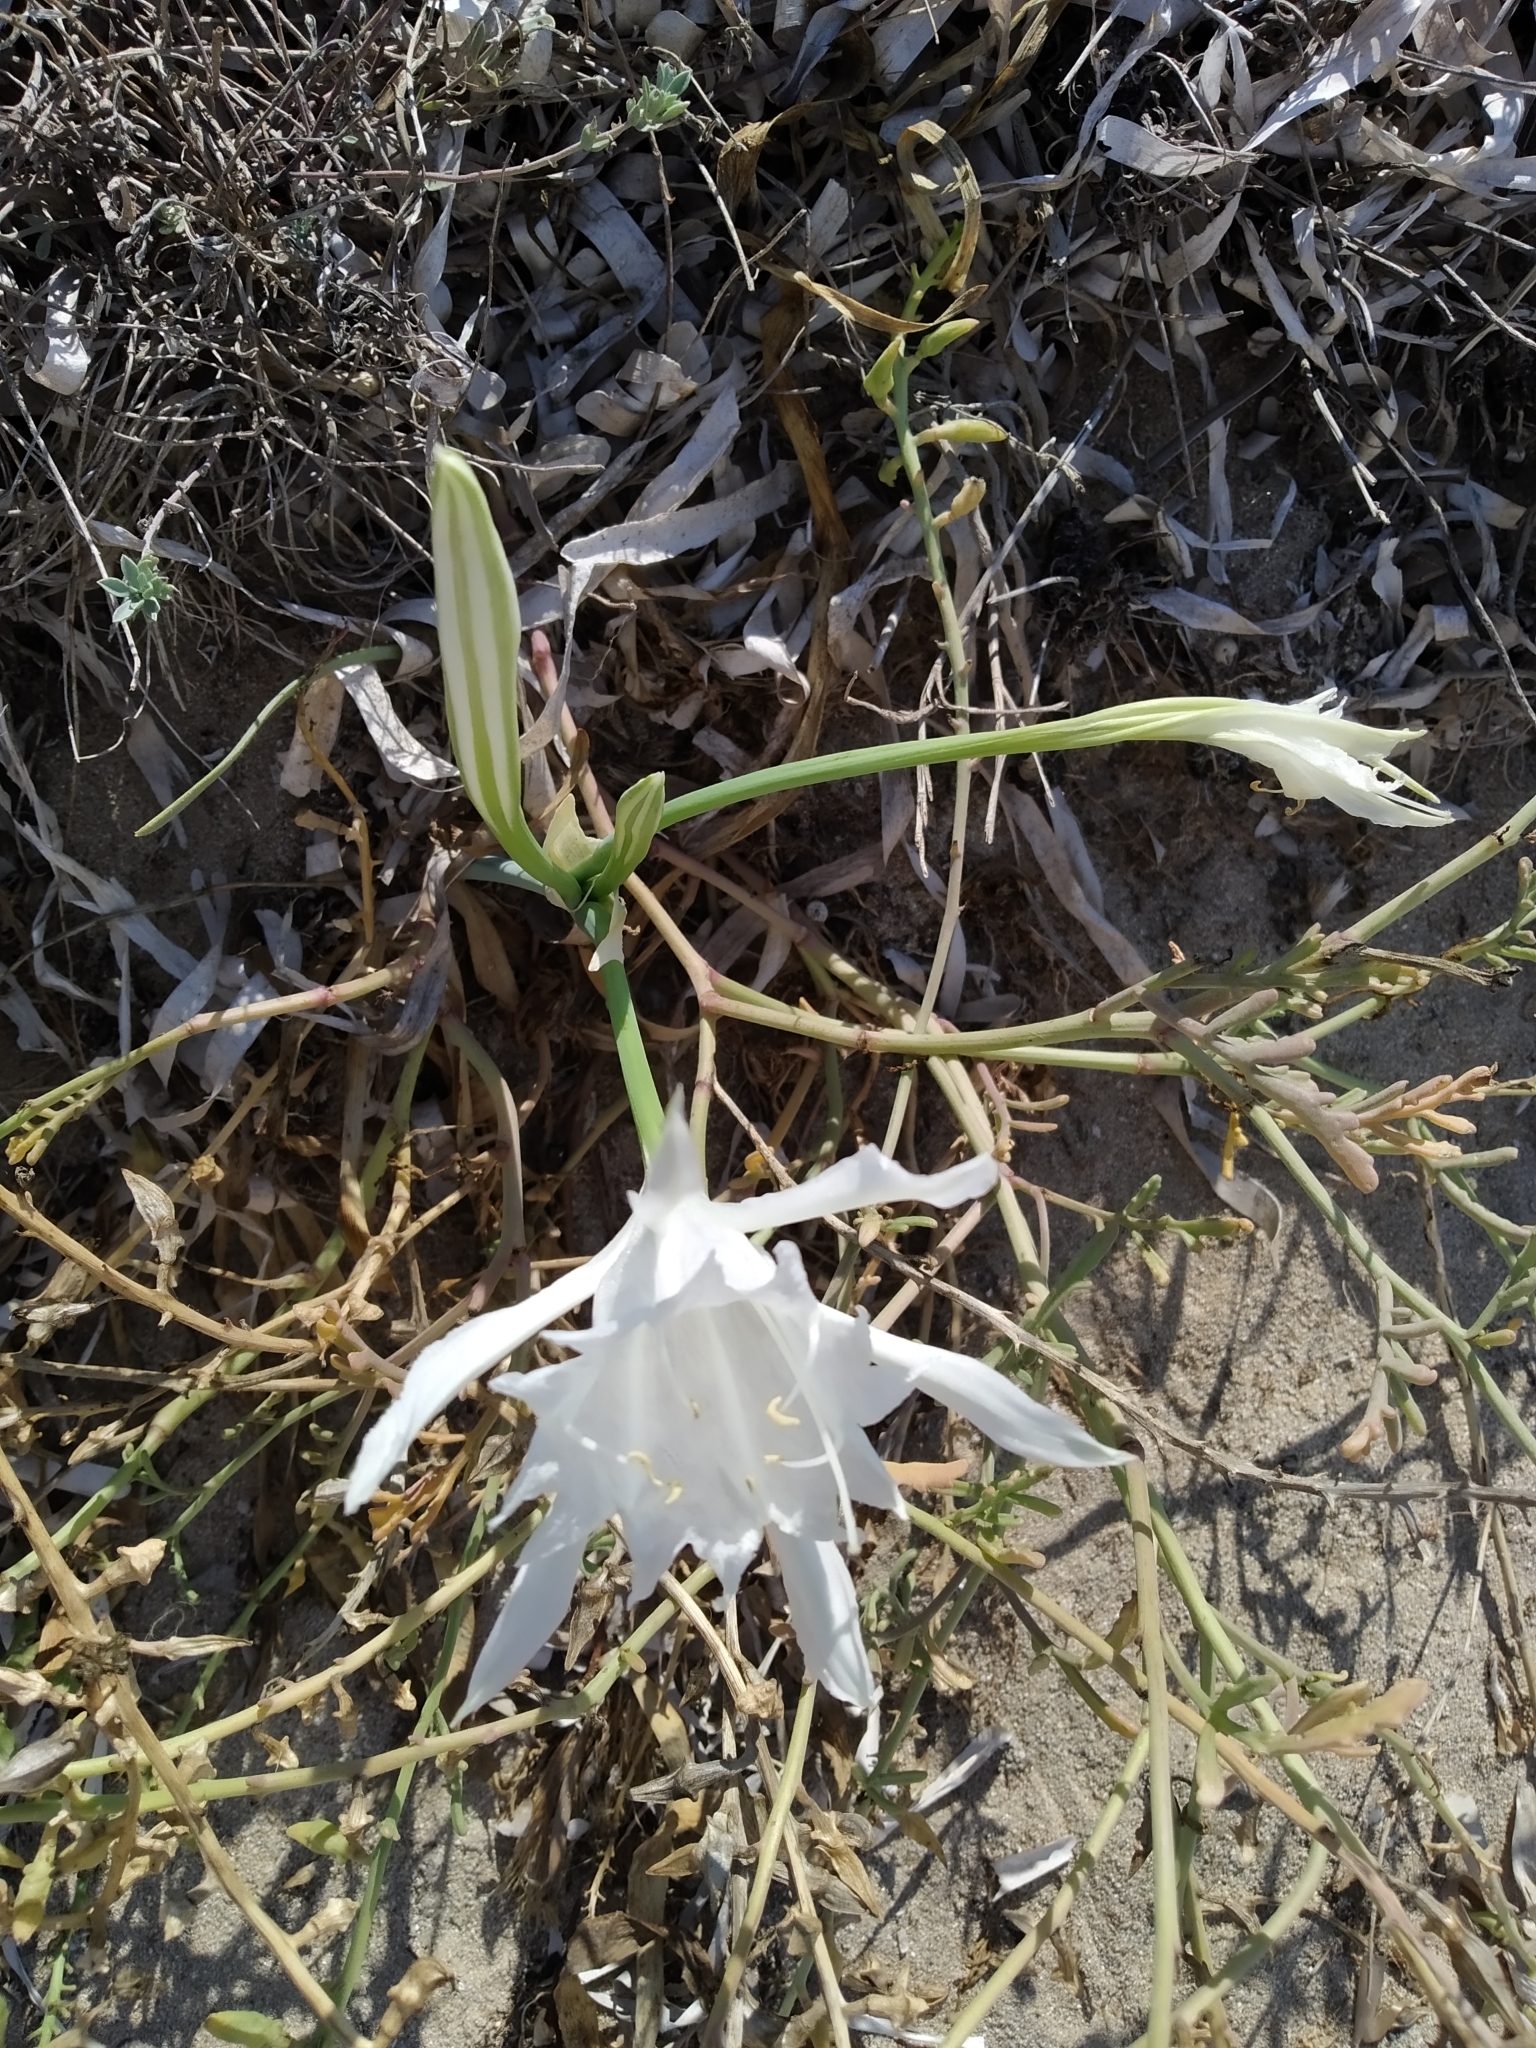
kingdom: Plantae
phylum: Tracheophyta
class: Liliopsida
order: Asparagales
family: Amaryllidaceae
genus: Pancratium
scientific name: Pancratium maritimum
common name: Sea-daffodil
